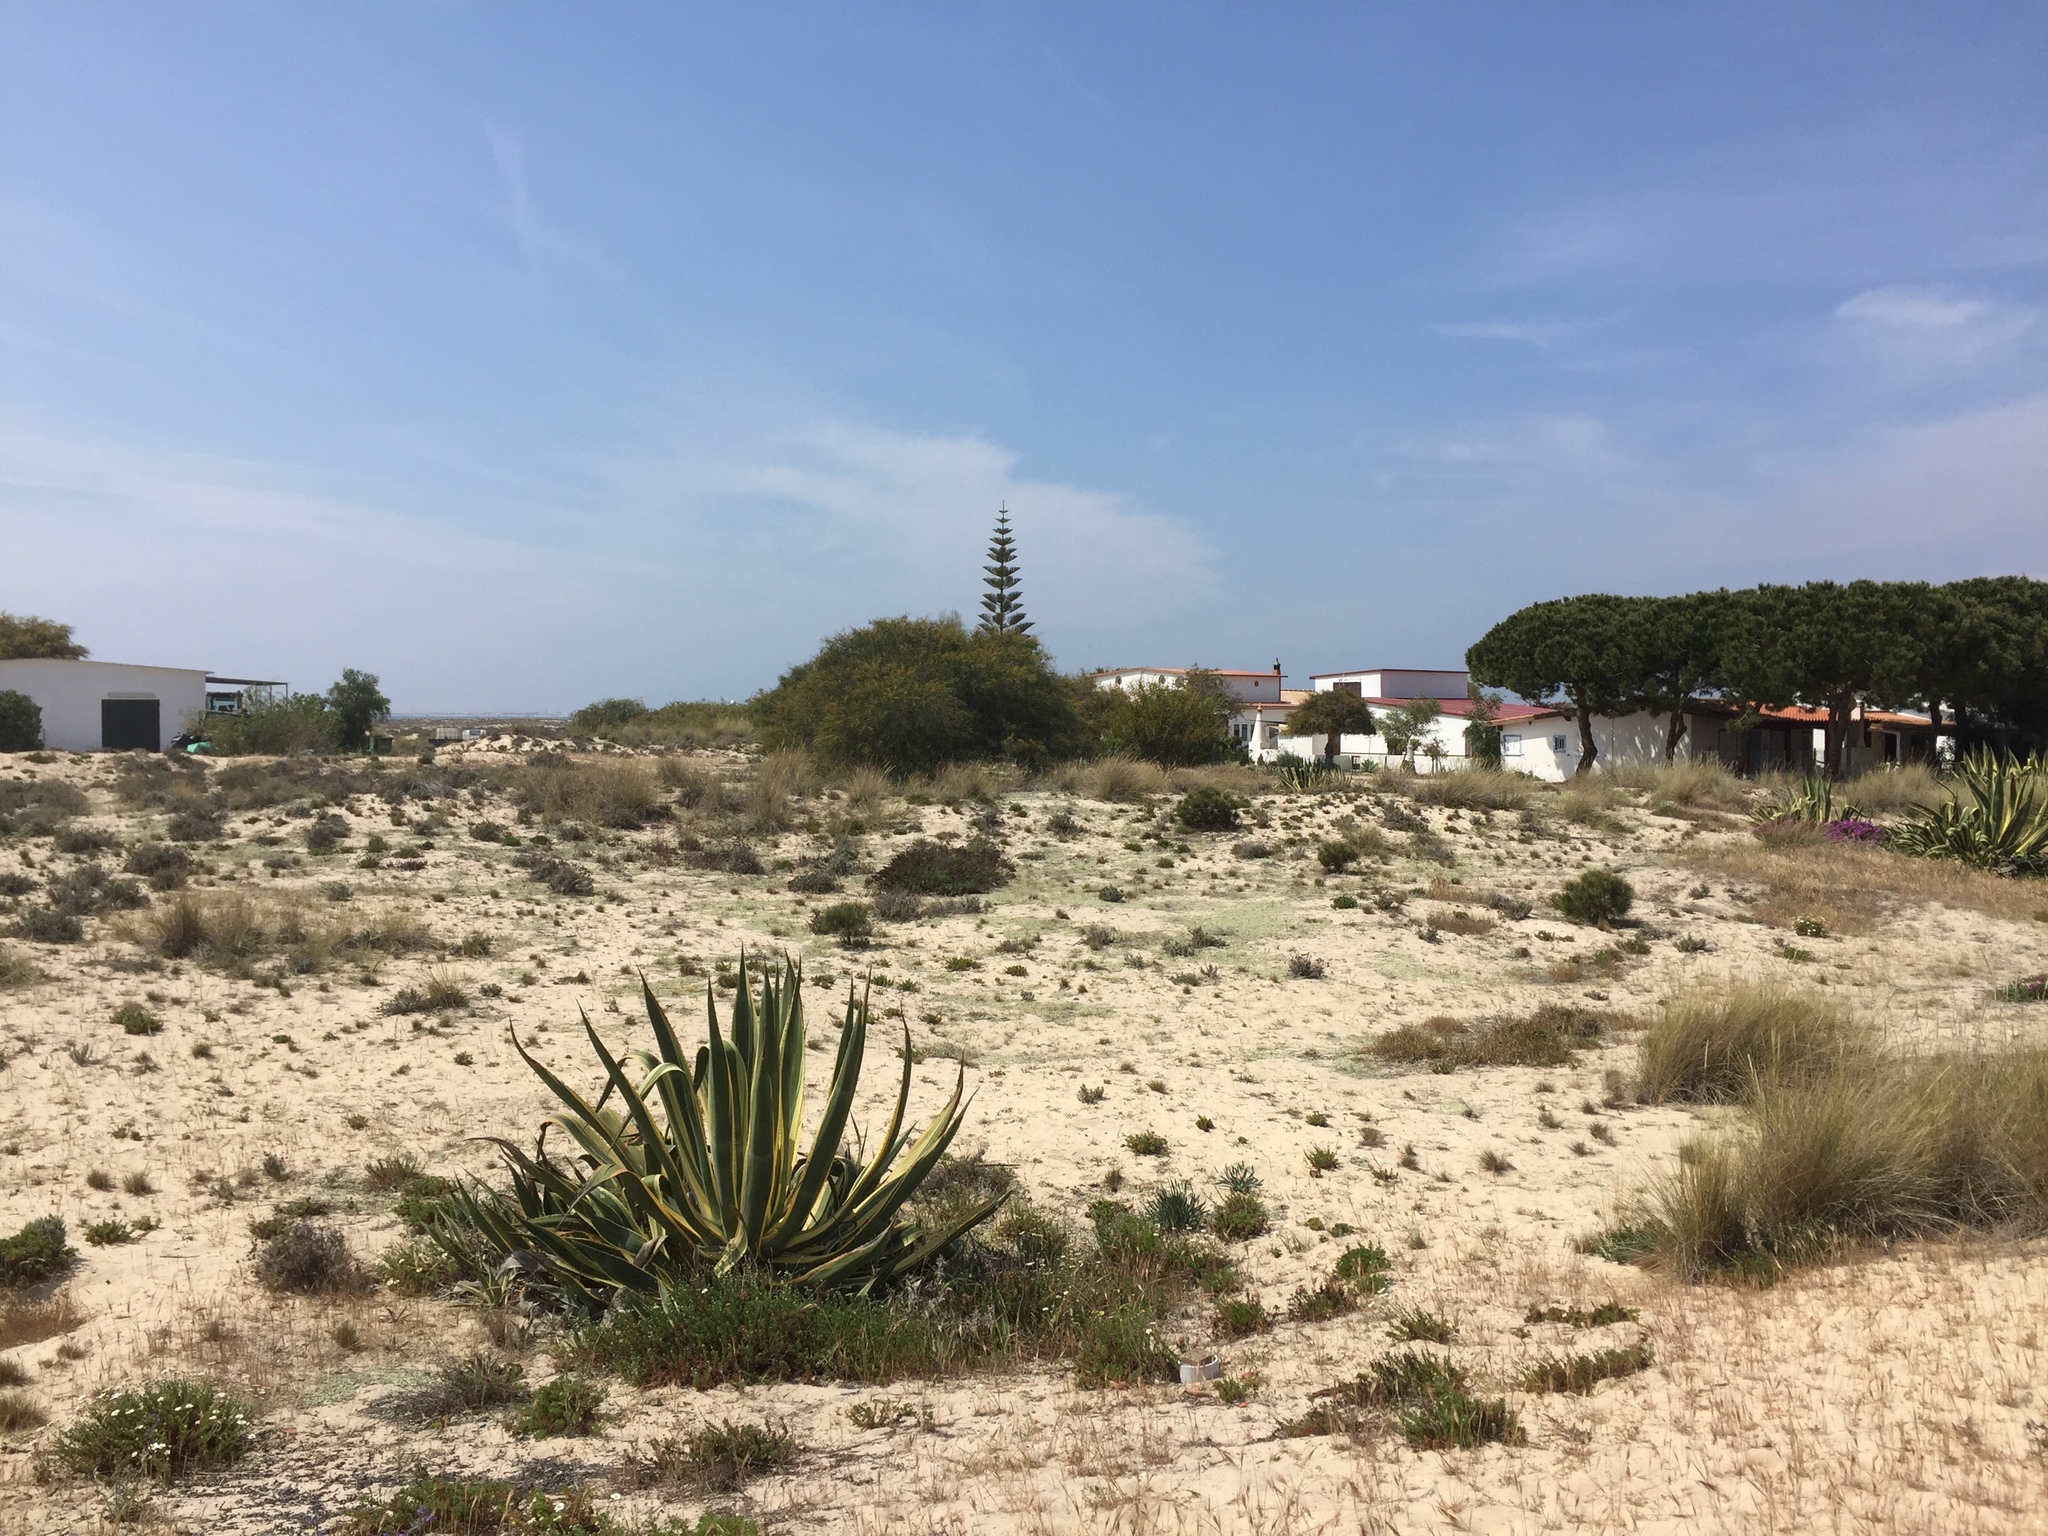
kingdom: Plantae
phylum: Tracheophyta
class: Liliopsida
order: Asparagales
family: Asparagaceae
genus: Agave
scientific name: Agave americana
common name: Centuryplant
